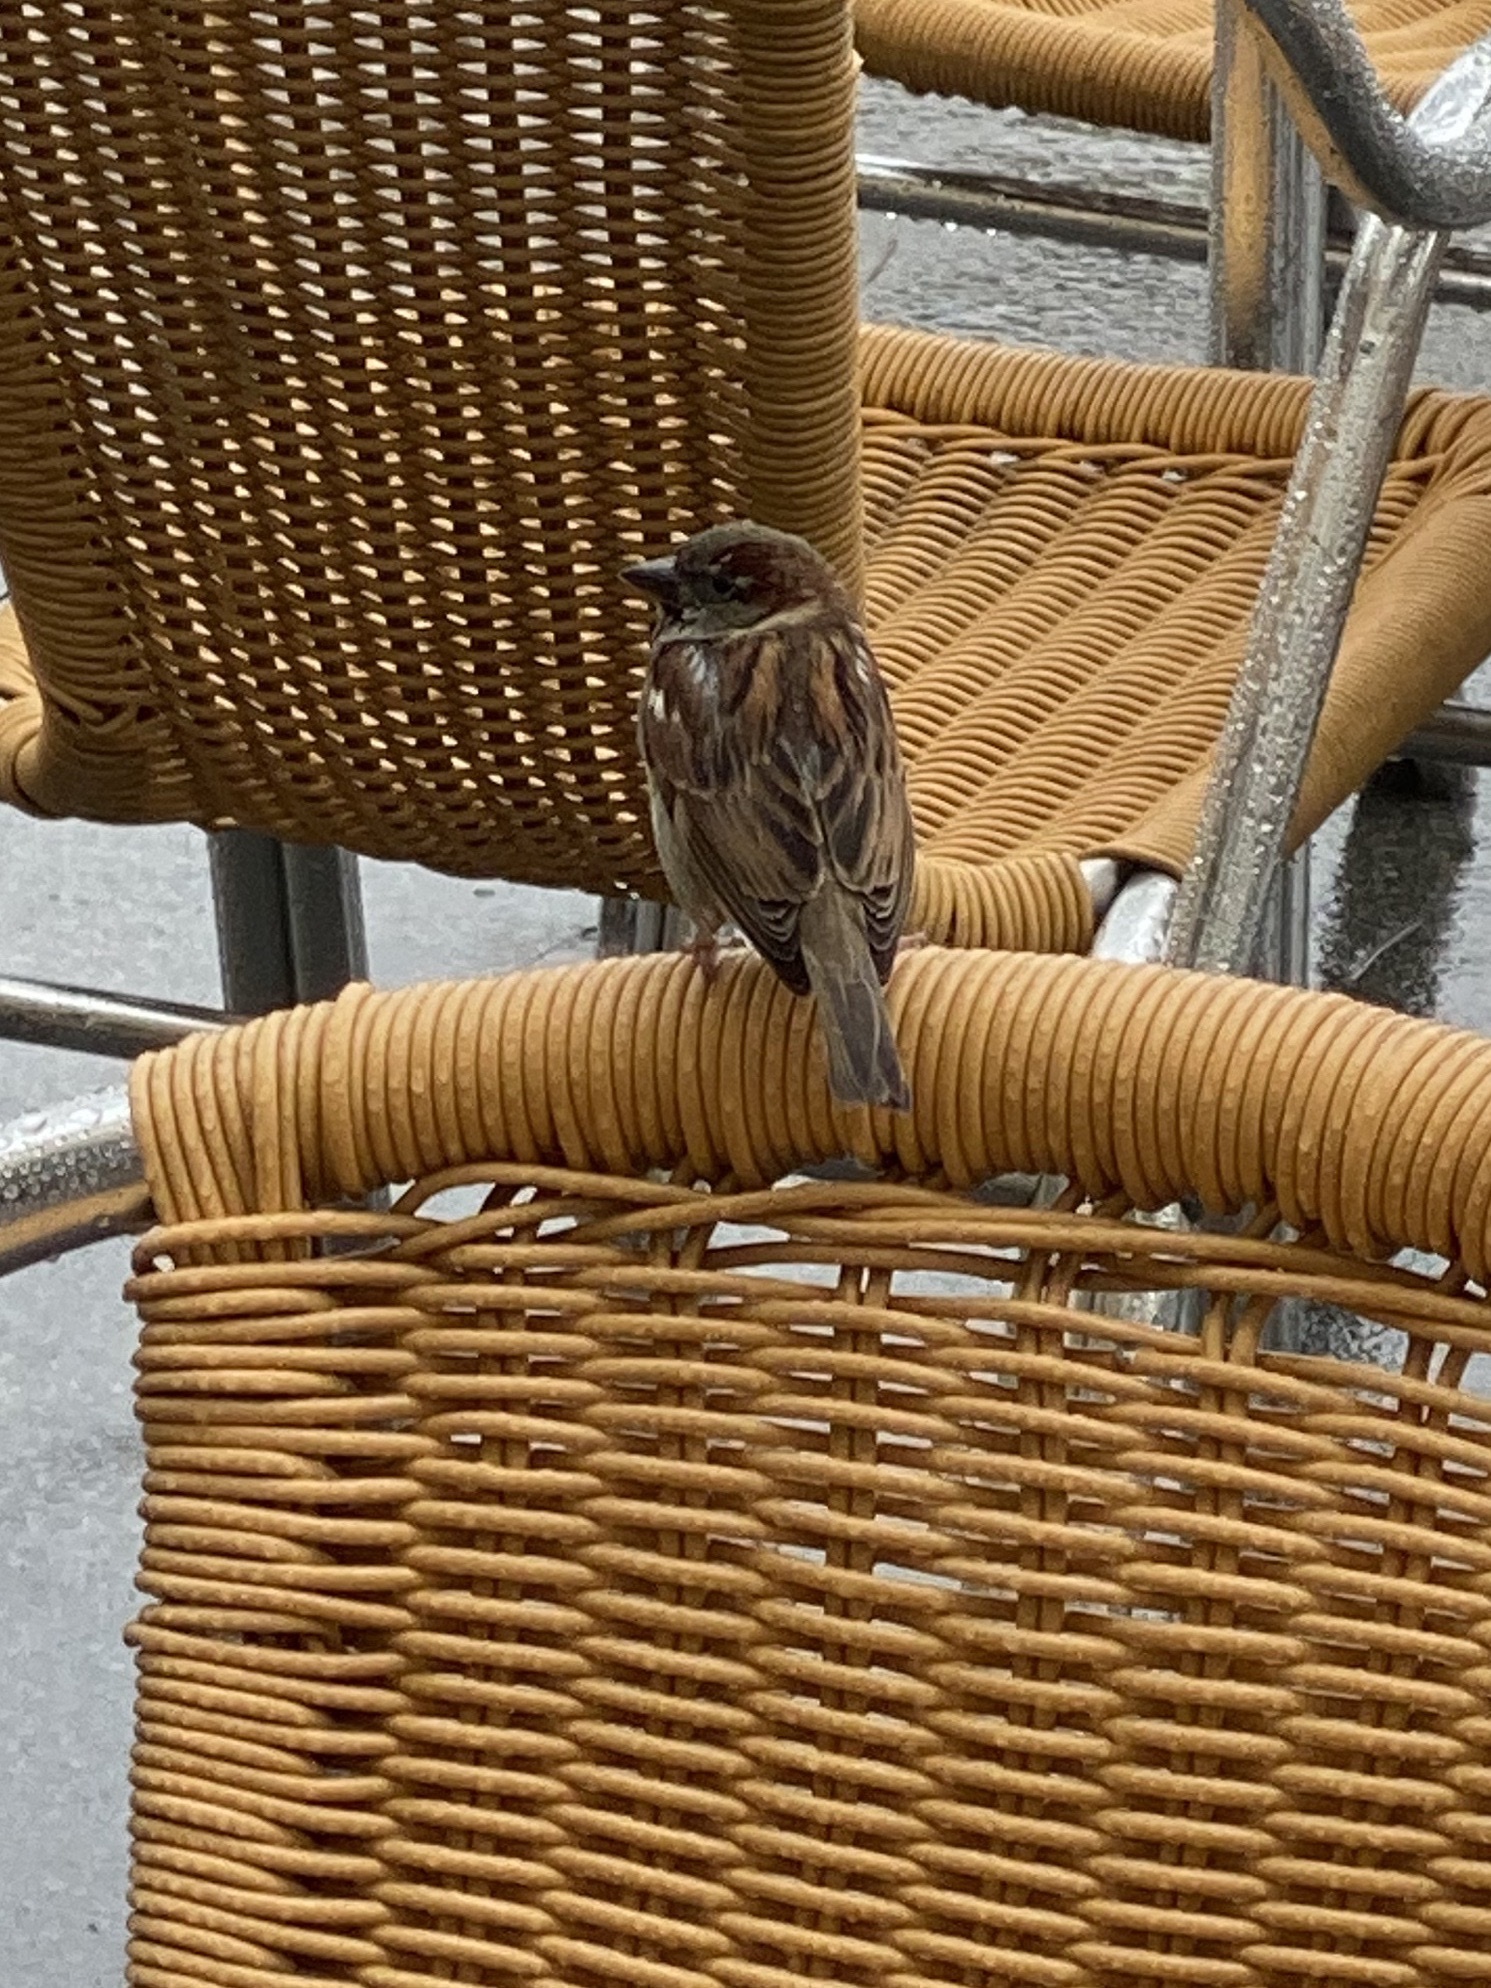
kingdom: Animalia
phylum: Chordata
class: Aves
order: Passeriformes
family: Passeridae
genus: Passer
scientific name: Passer domesticus
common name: House sparrow
